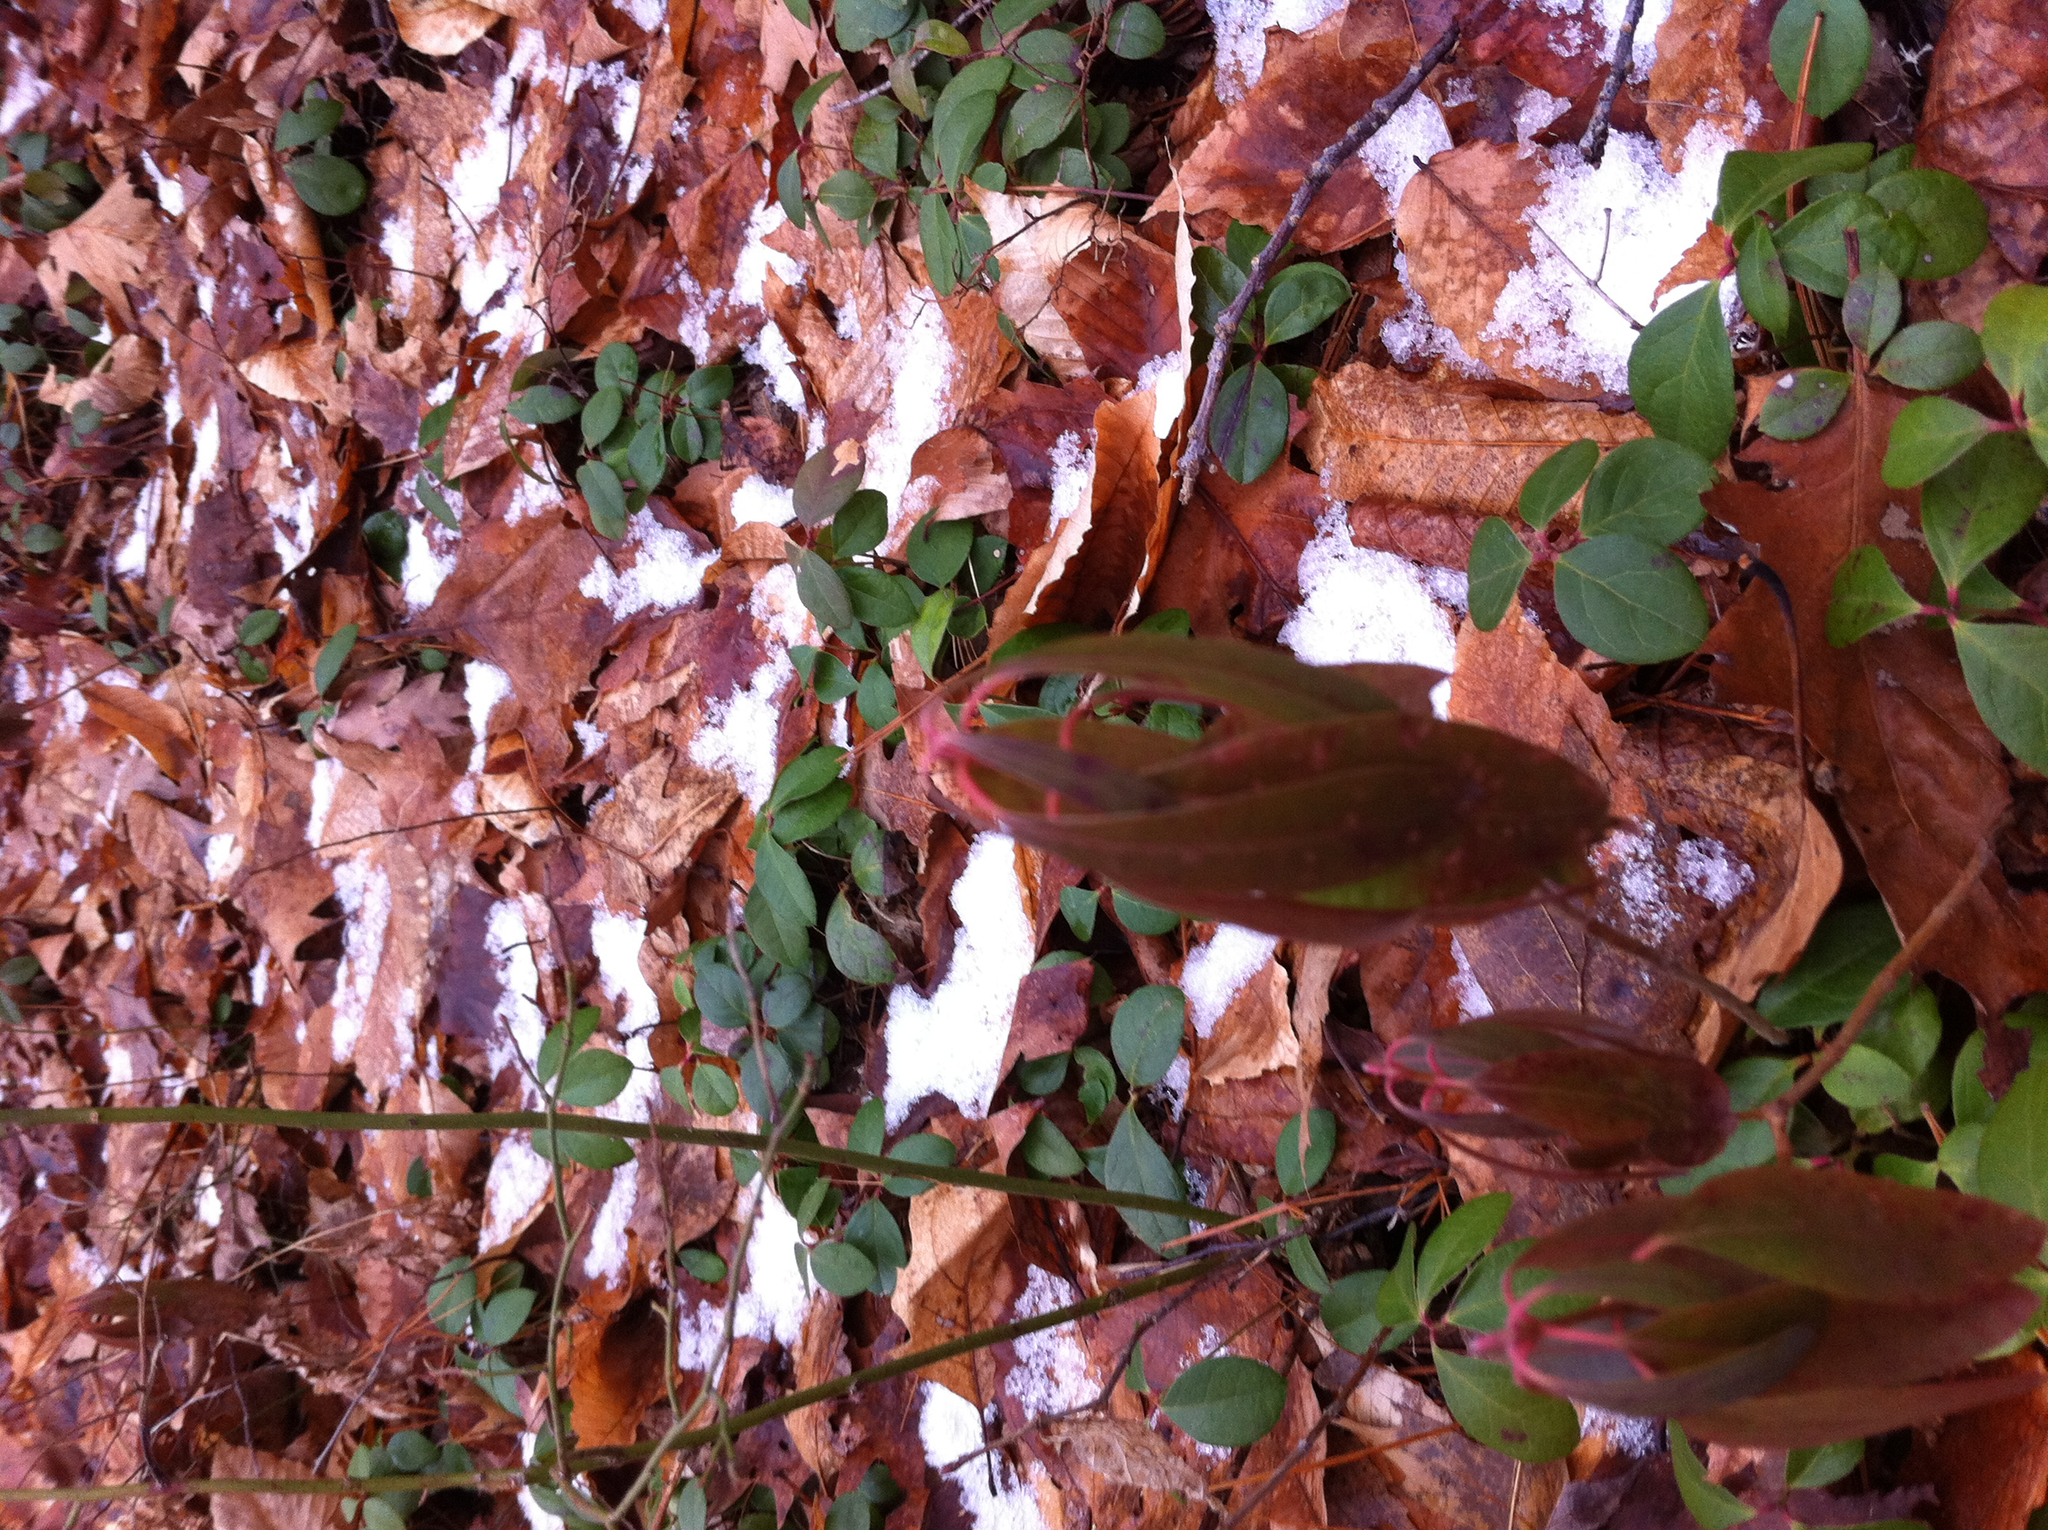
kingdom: Plantae
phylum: Tracheophyta
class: Magnoliopsida
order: Ericales
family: Ericaceae
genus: Kalmia
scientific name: Kalmia angustifolia
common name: Sheep-laurel
